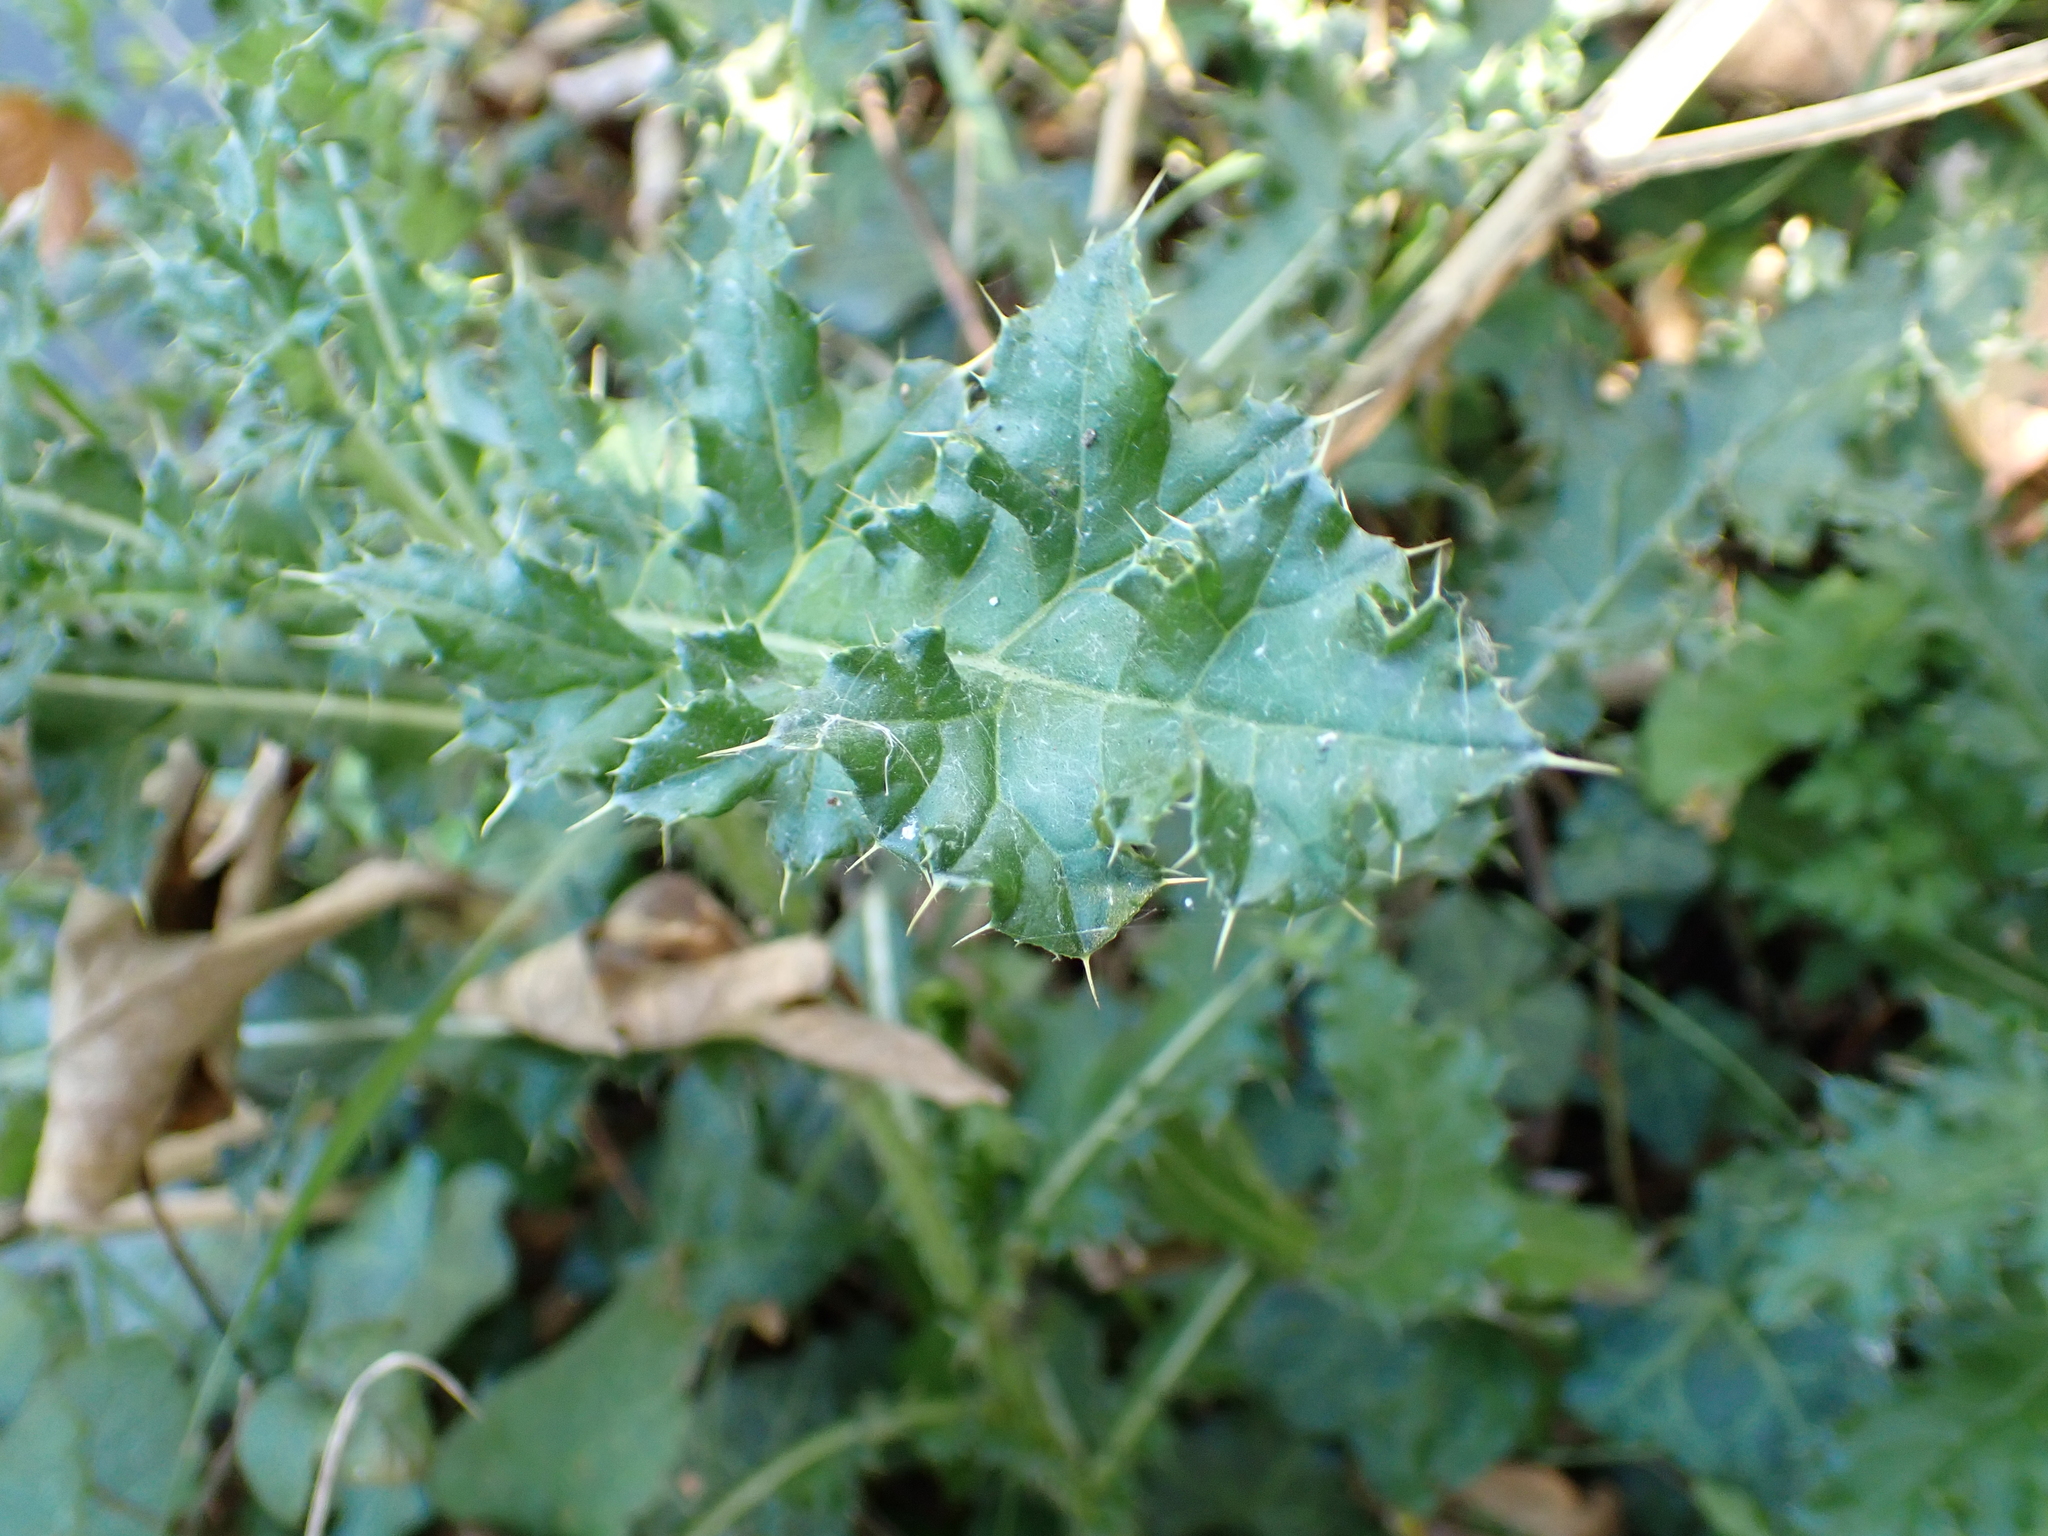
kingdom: Plantae
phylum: Tracheophyta
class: Magnoliopsida
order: Asterales
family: Asteraceae
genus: Cirsium
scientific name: Cirsium arvense
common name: Creeping thistle
